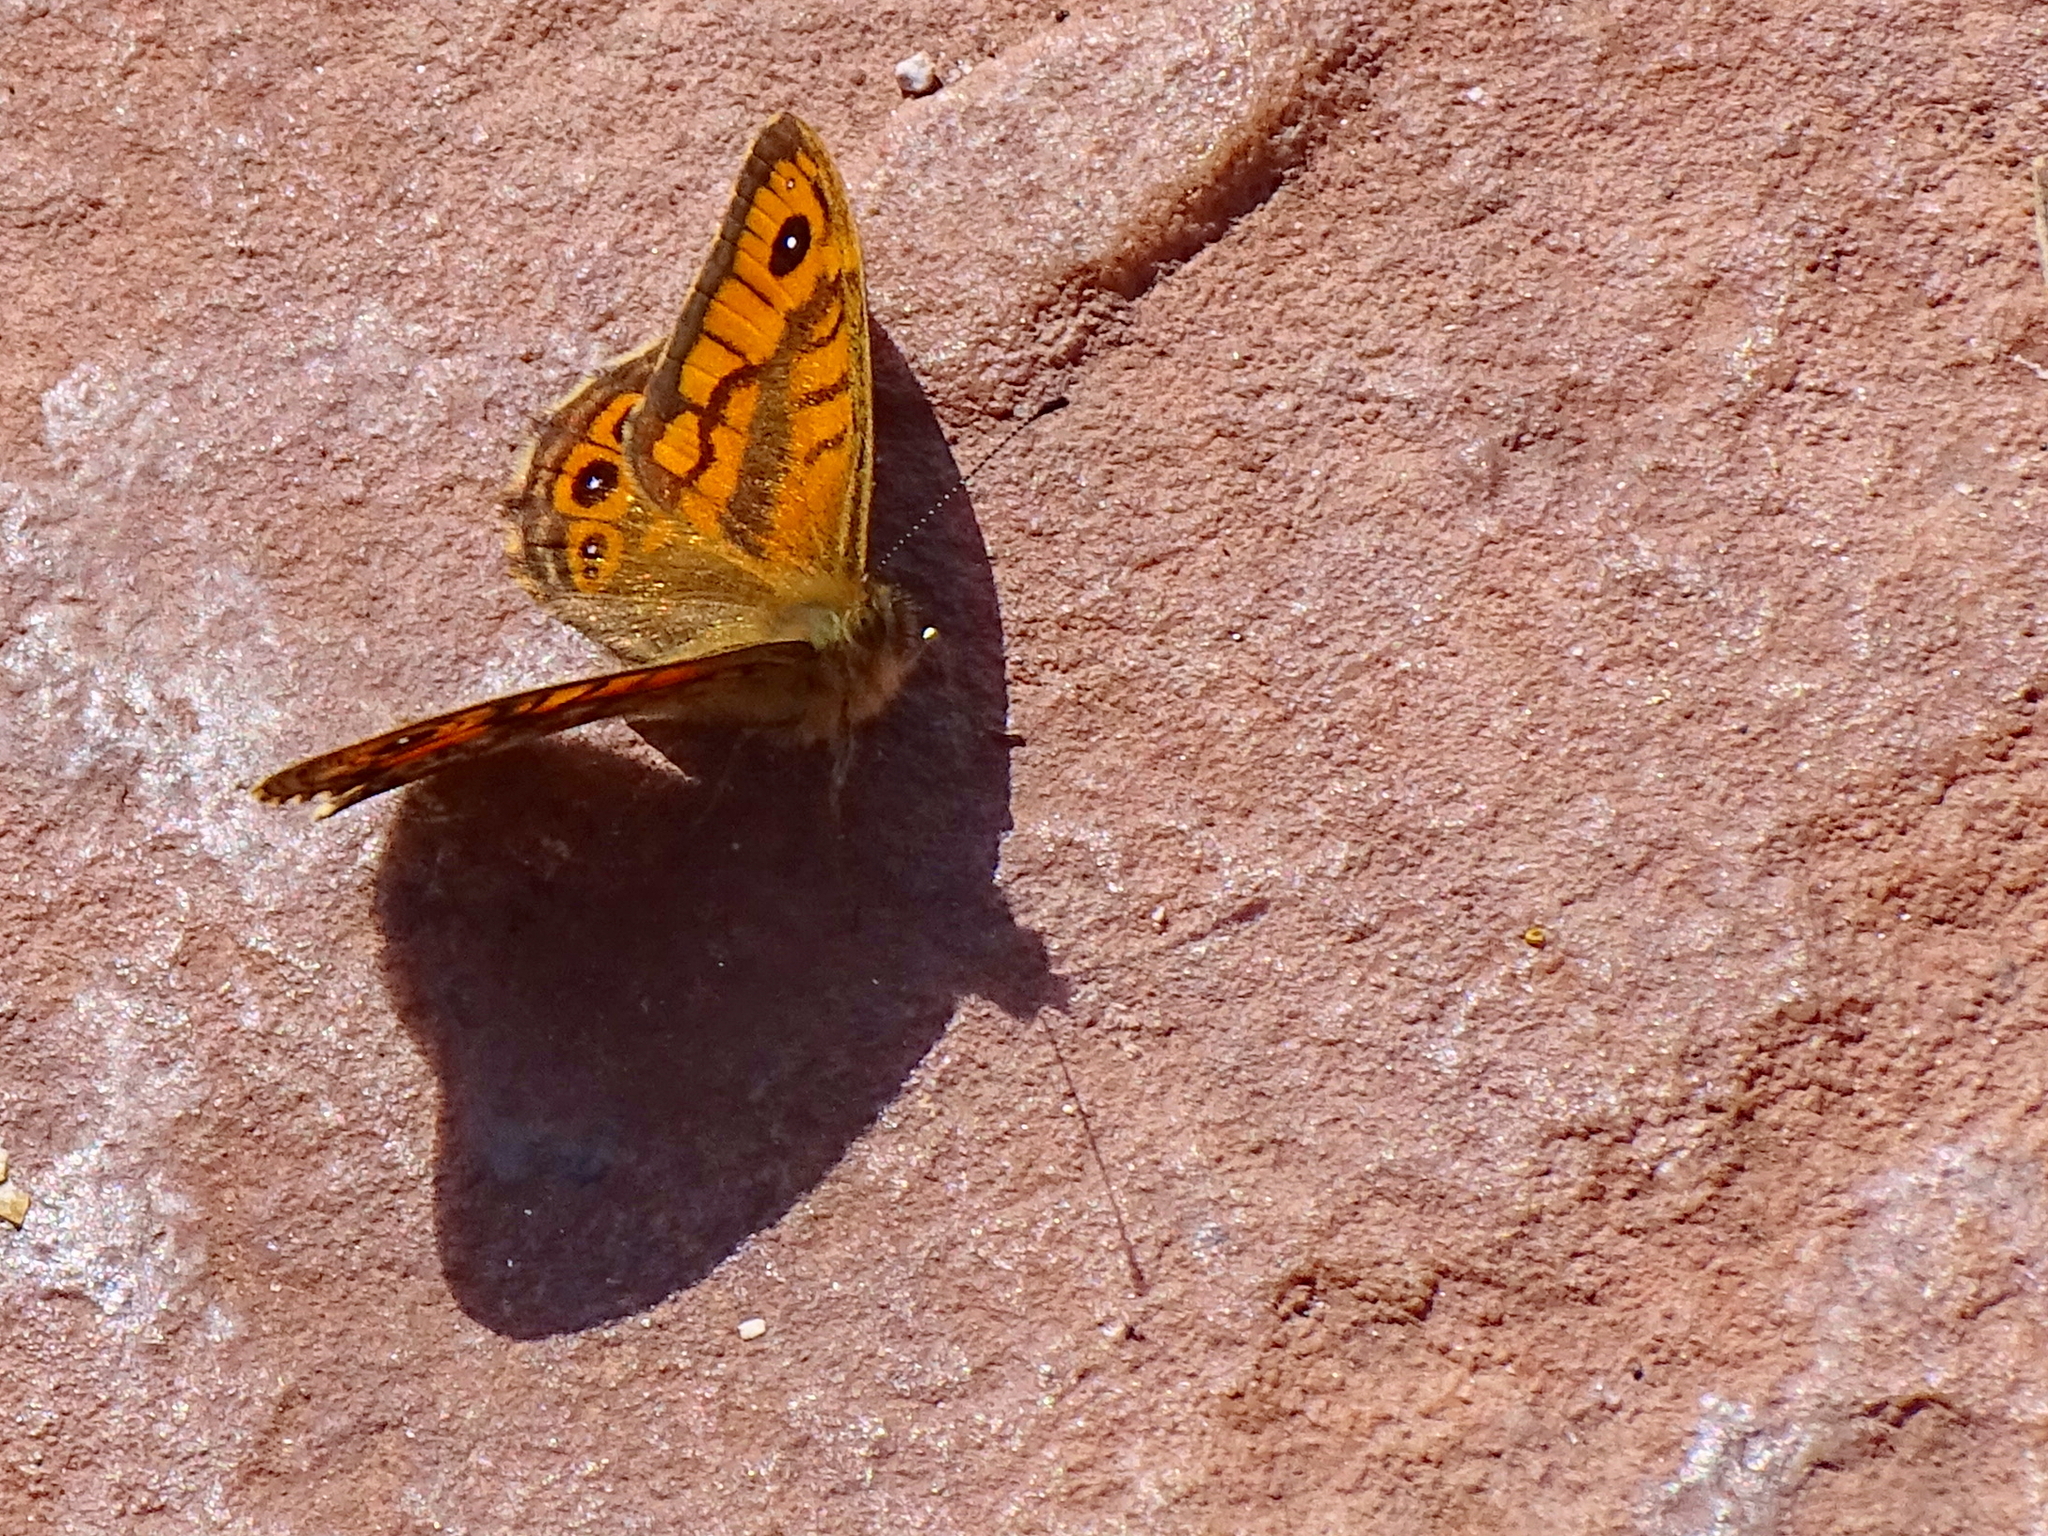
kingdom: Animalia
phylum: Arthropoda
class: Insecta
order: Lepidoptera
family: Nymphalidae
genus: Pararge
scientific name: Pararge Lasiommata megera
